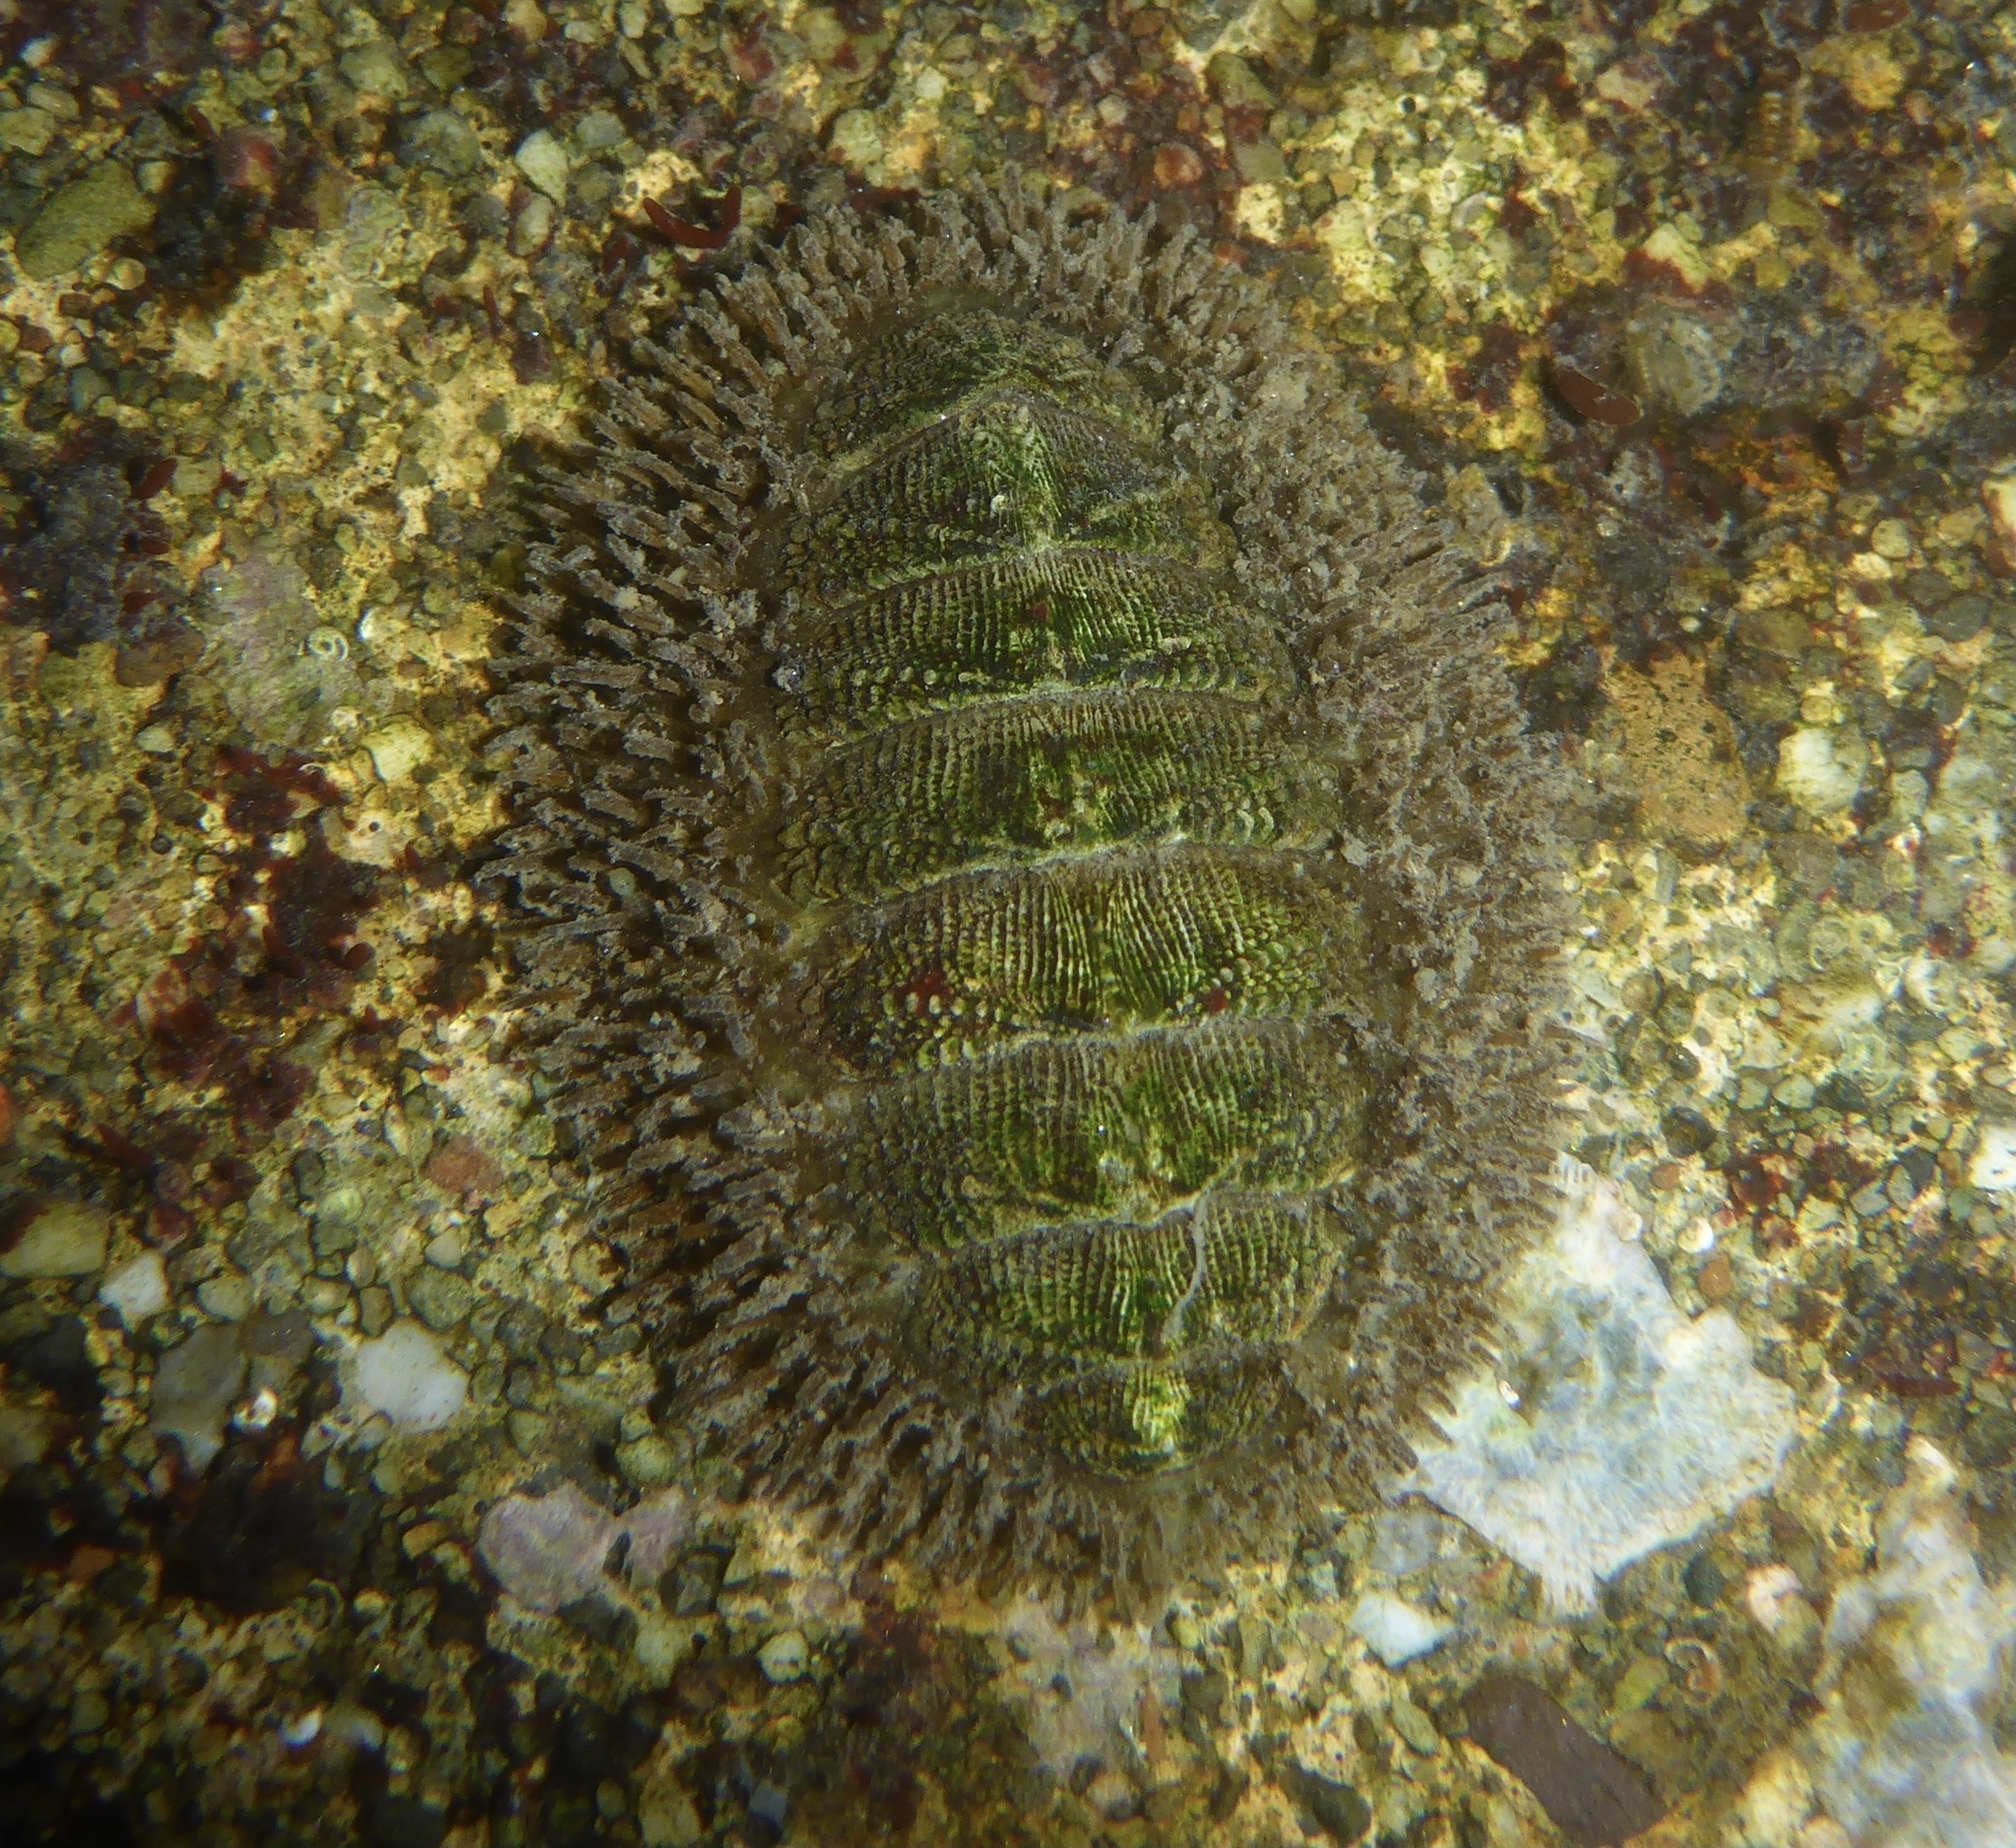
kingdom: Animalia
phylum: Mollusca
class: Polyplacophora
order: Chitonida
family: Mopaliidae
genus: Mopalia
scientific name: Mopalia muscosa
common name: Mossy chiton
